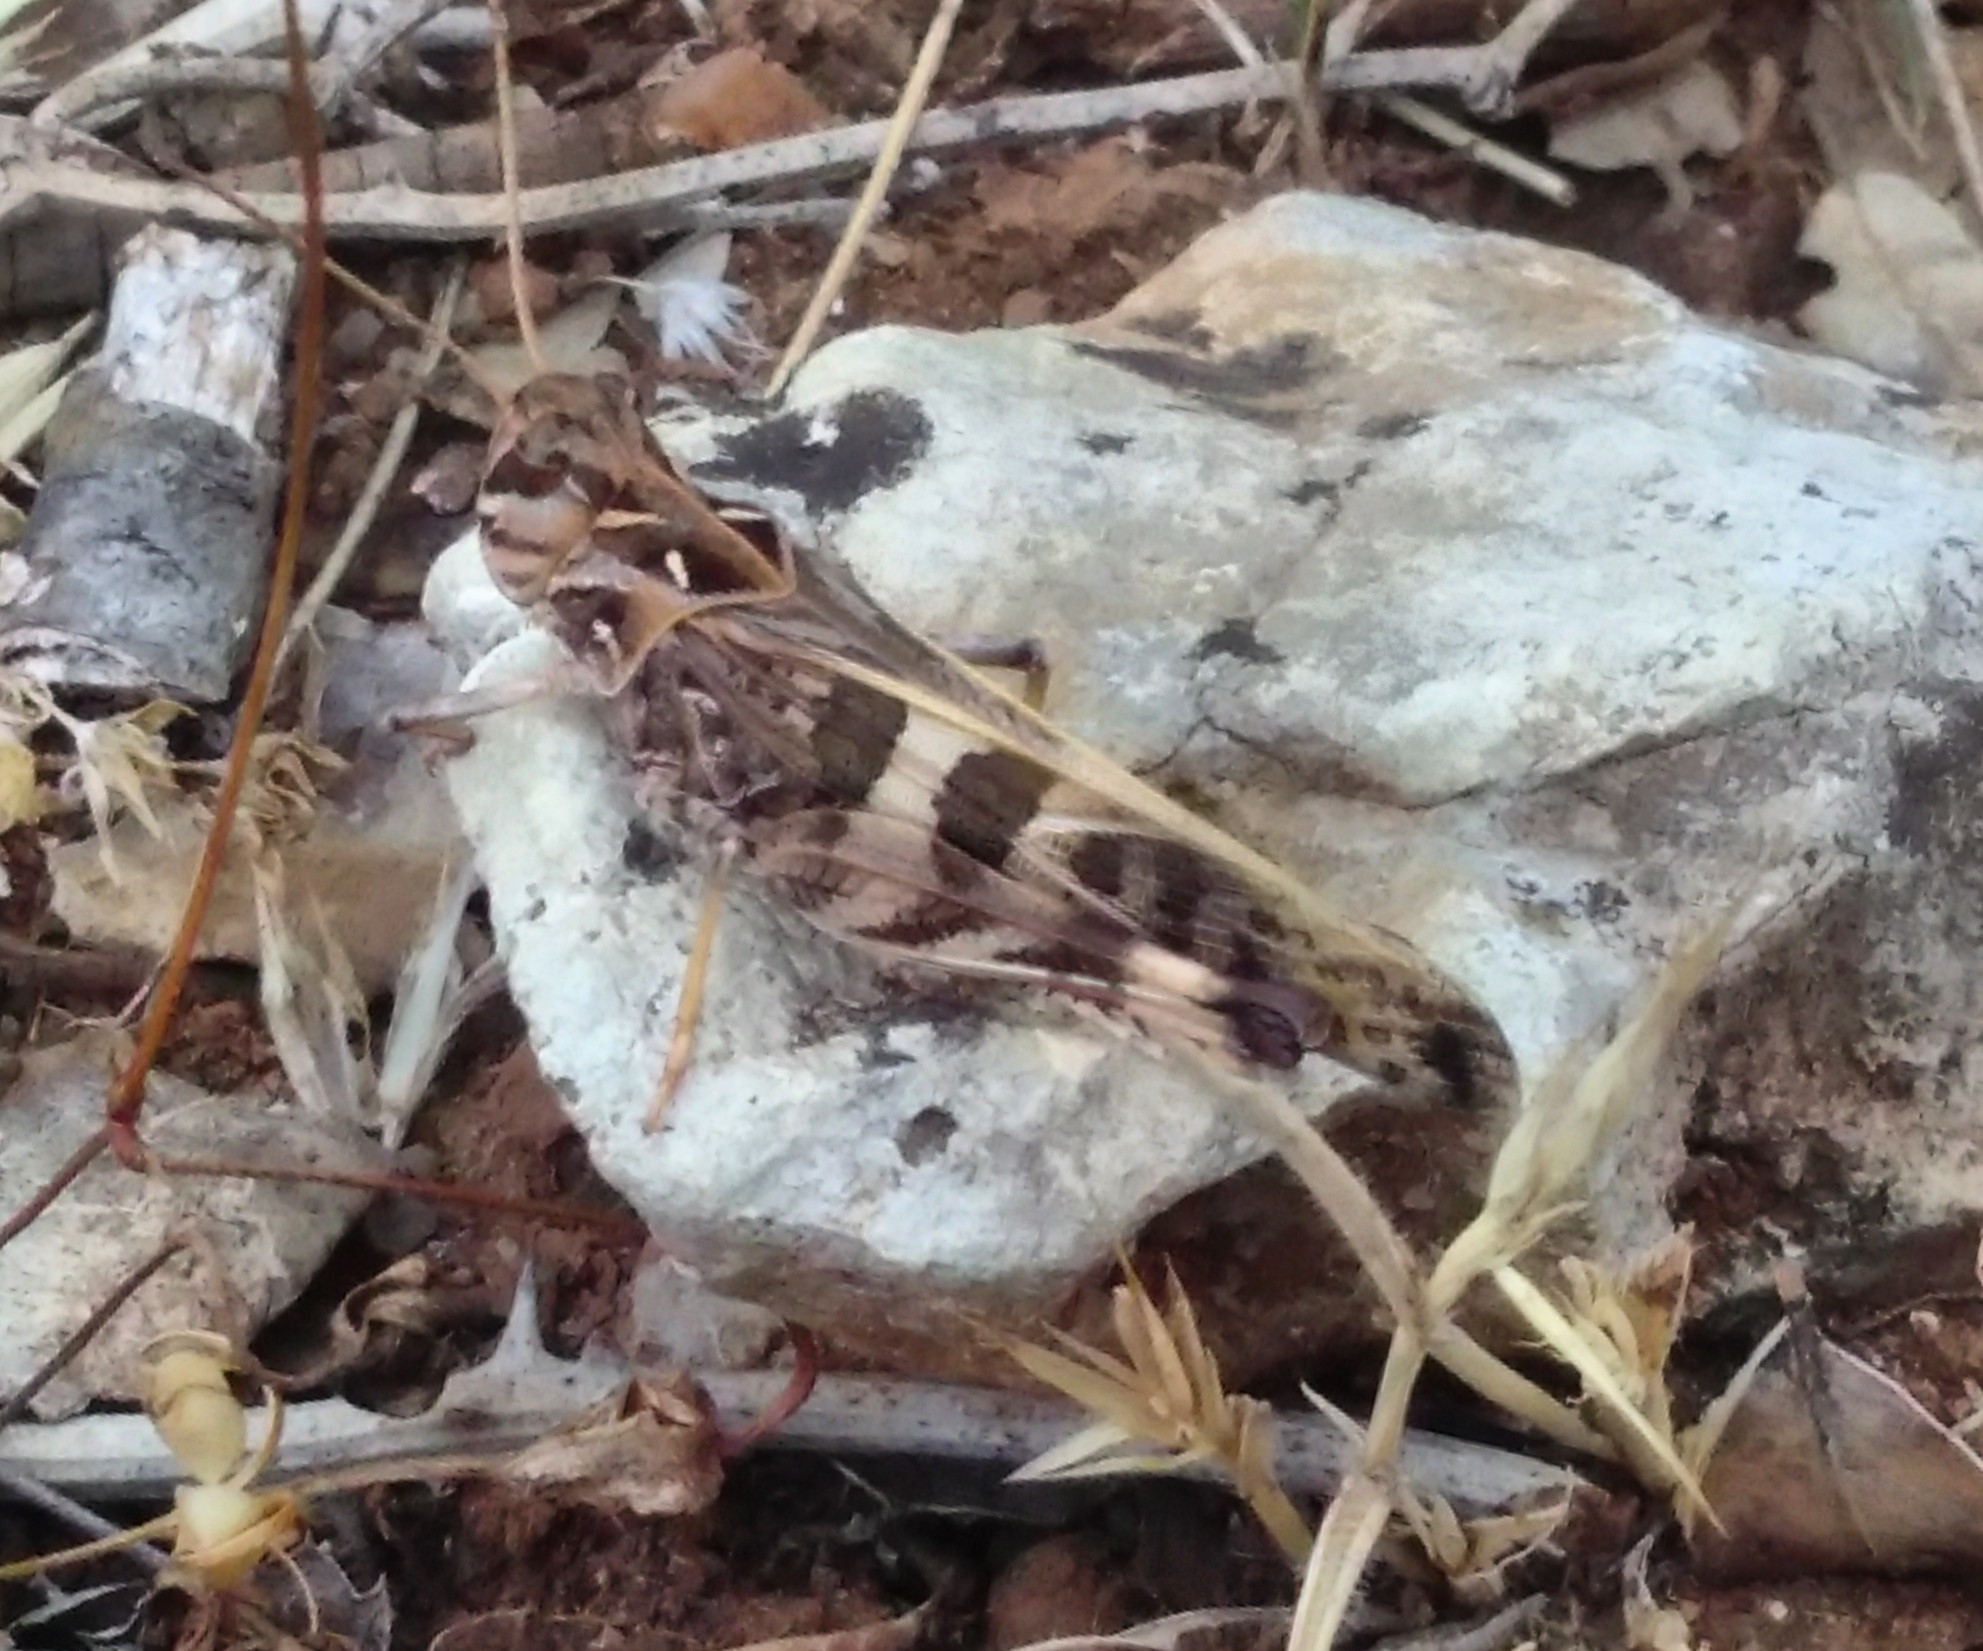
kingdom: Animalia
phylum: Arthropoda
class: Insecta
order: Orthoptera
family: Acrididae
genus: Oedaleus
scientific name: Oedaleus decorus
